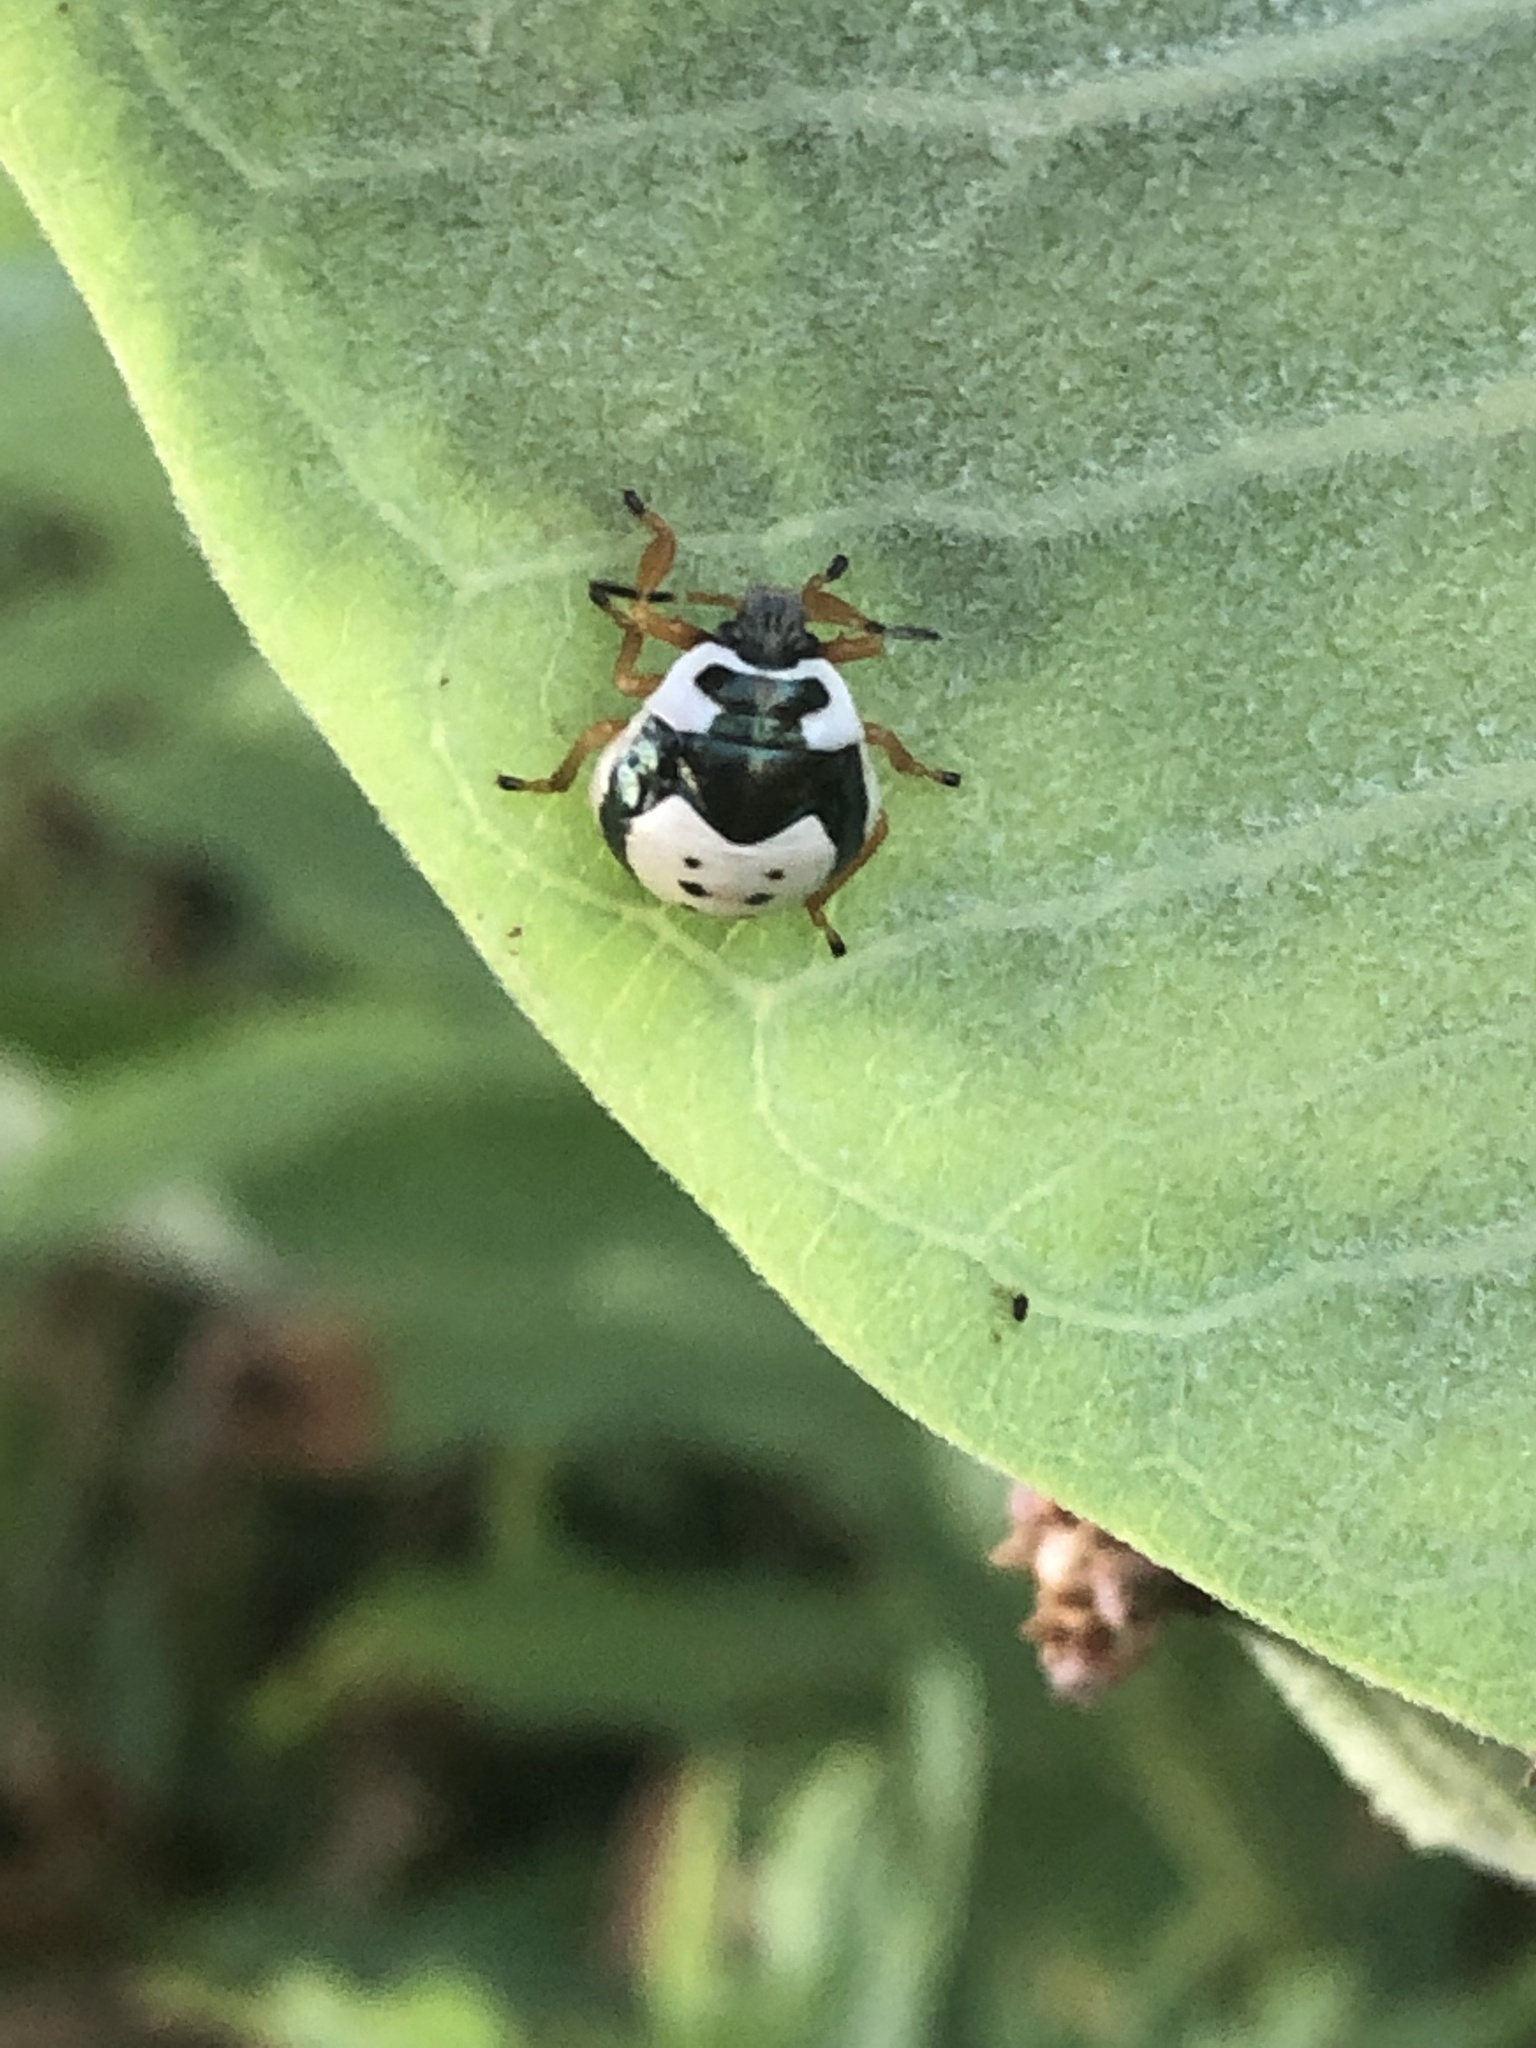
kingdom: Animalia
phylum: Arthropoda
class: Insecta
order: Hemiptera
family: Pentatomidae
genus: Stiretrus
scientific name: Stiretrus anchorago
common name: Anchor stink bug
